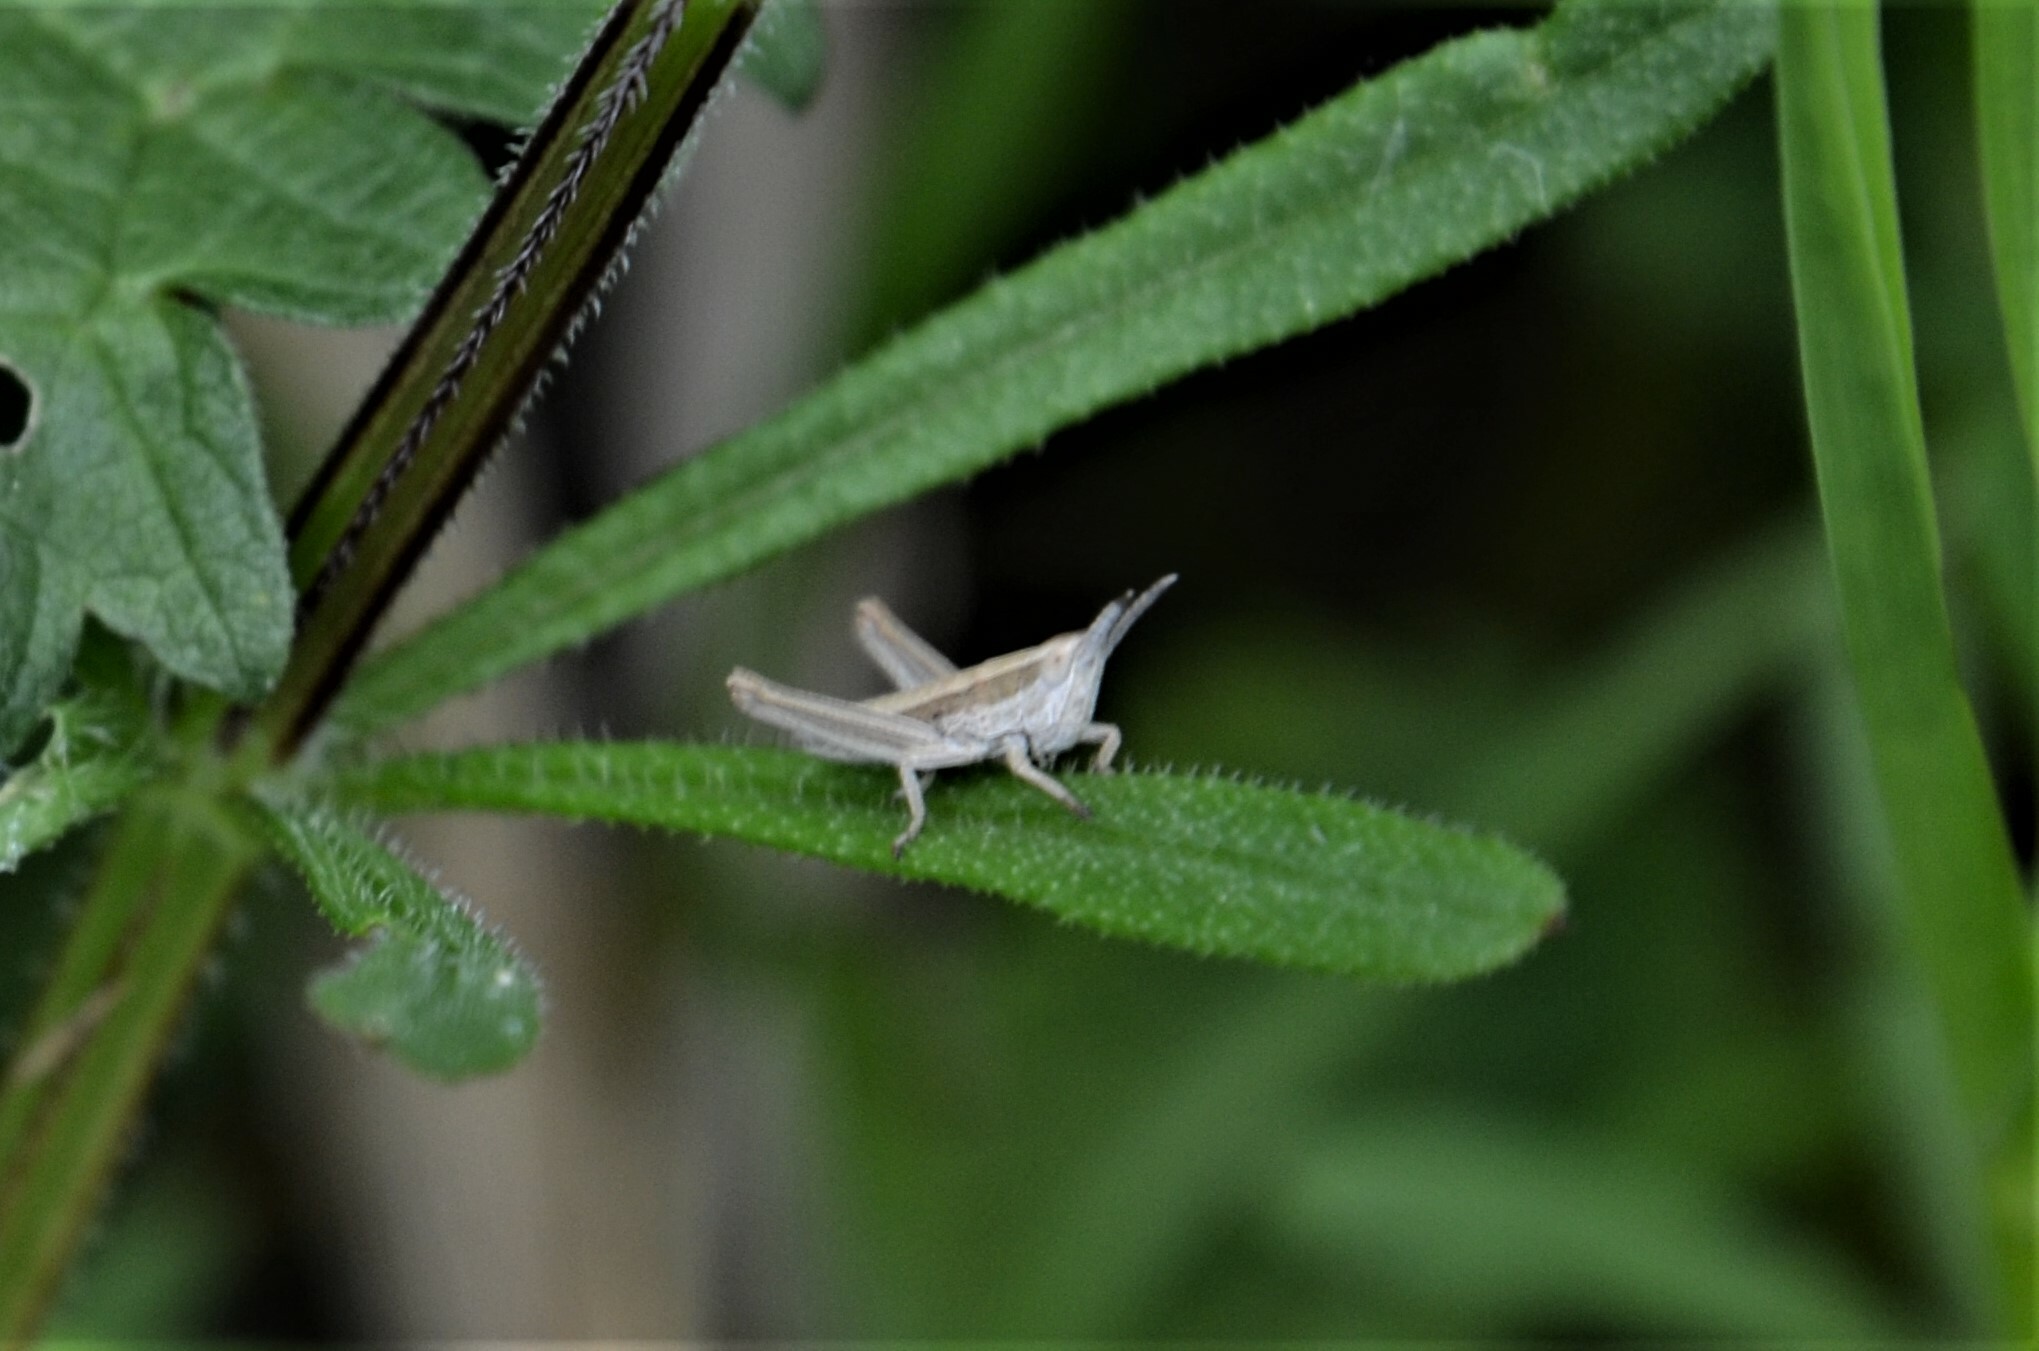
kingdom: Animalia
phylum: Arthropoda
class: Insecta
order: Orthoptera
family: Acrididae
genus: Euthystira
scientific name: Euthystira brachyptera
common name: Small gold grasshopper
